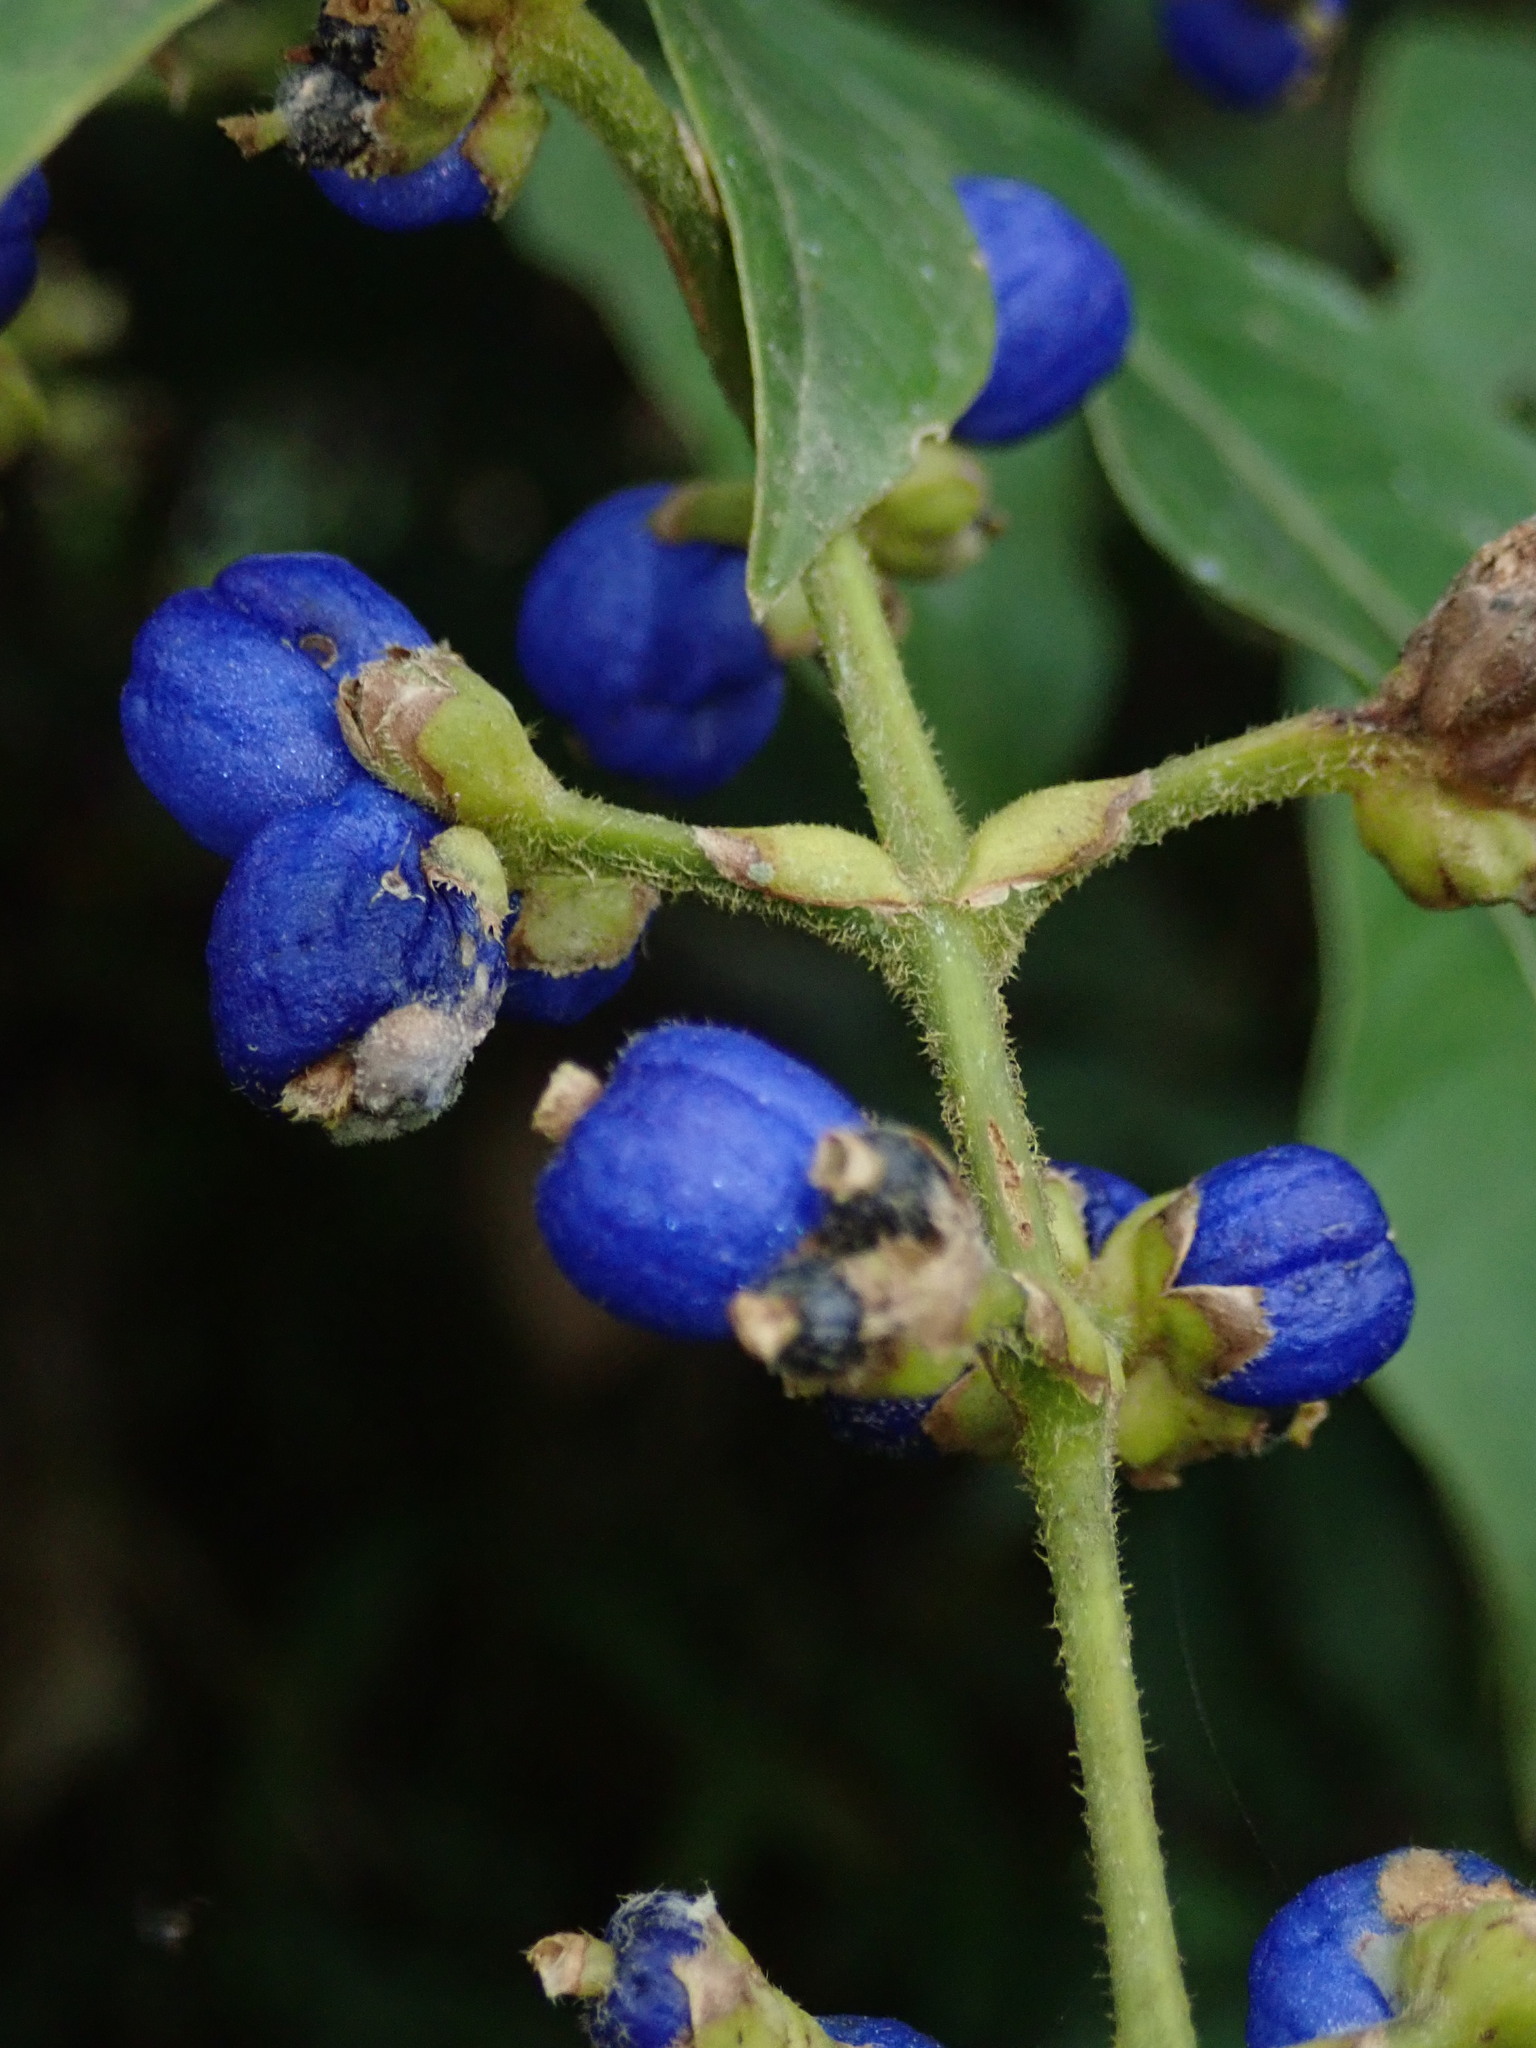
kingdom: Plantae
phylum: Tracheophyta
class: Magnoliopsida
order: Gentianales
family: Rubiaceae
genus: Palicourea
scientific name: Palicourea caerulea
